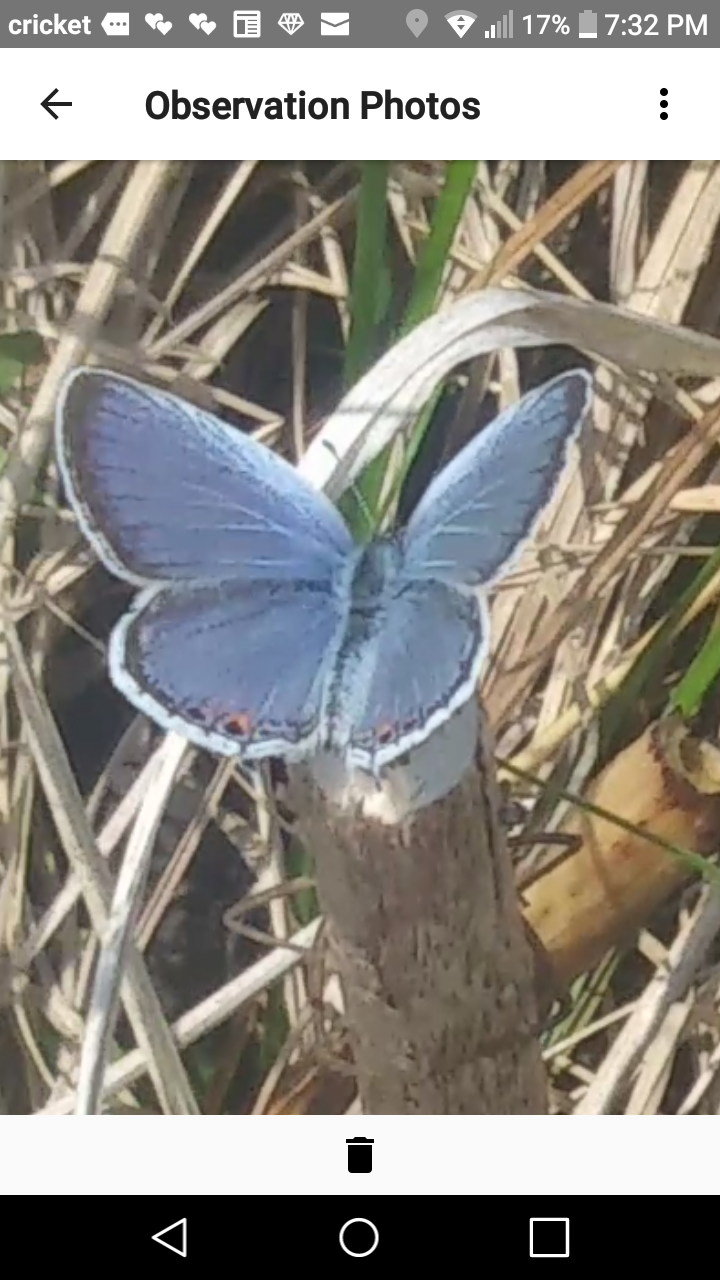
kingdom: Animalia
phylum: Arthropoda
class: Insecta
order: Lepidoptera
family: Lycaenidae
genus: Elkalyce
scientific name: Elkalyce comyntas
